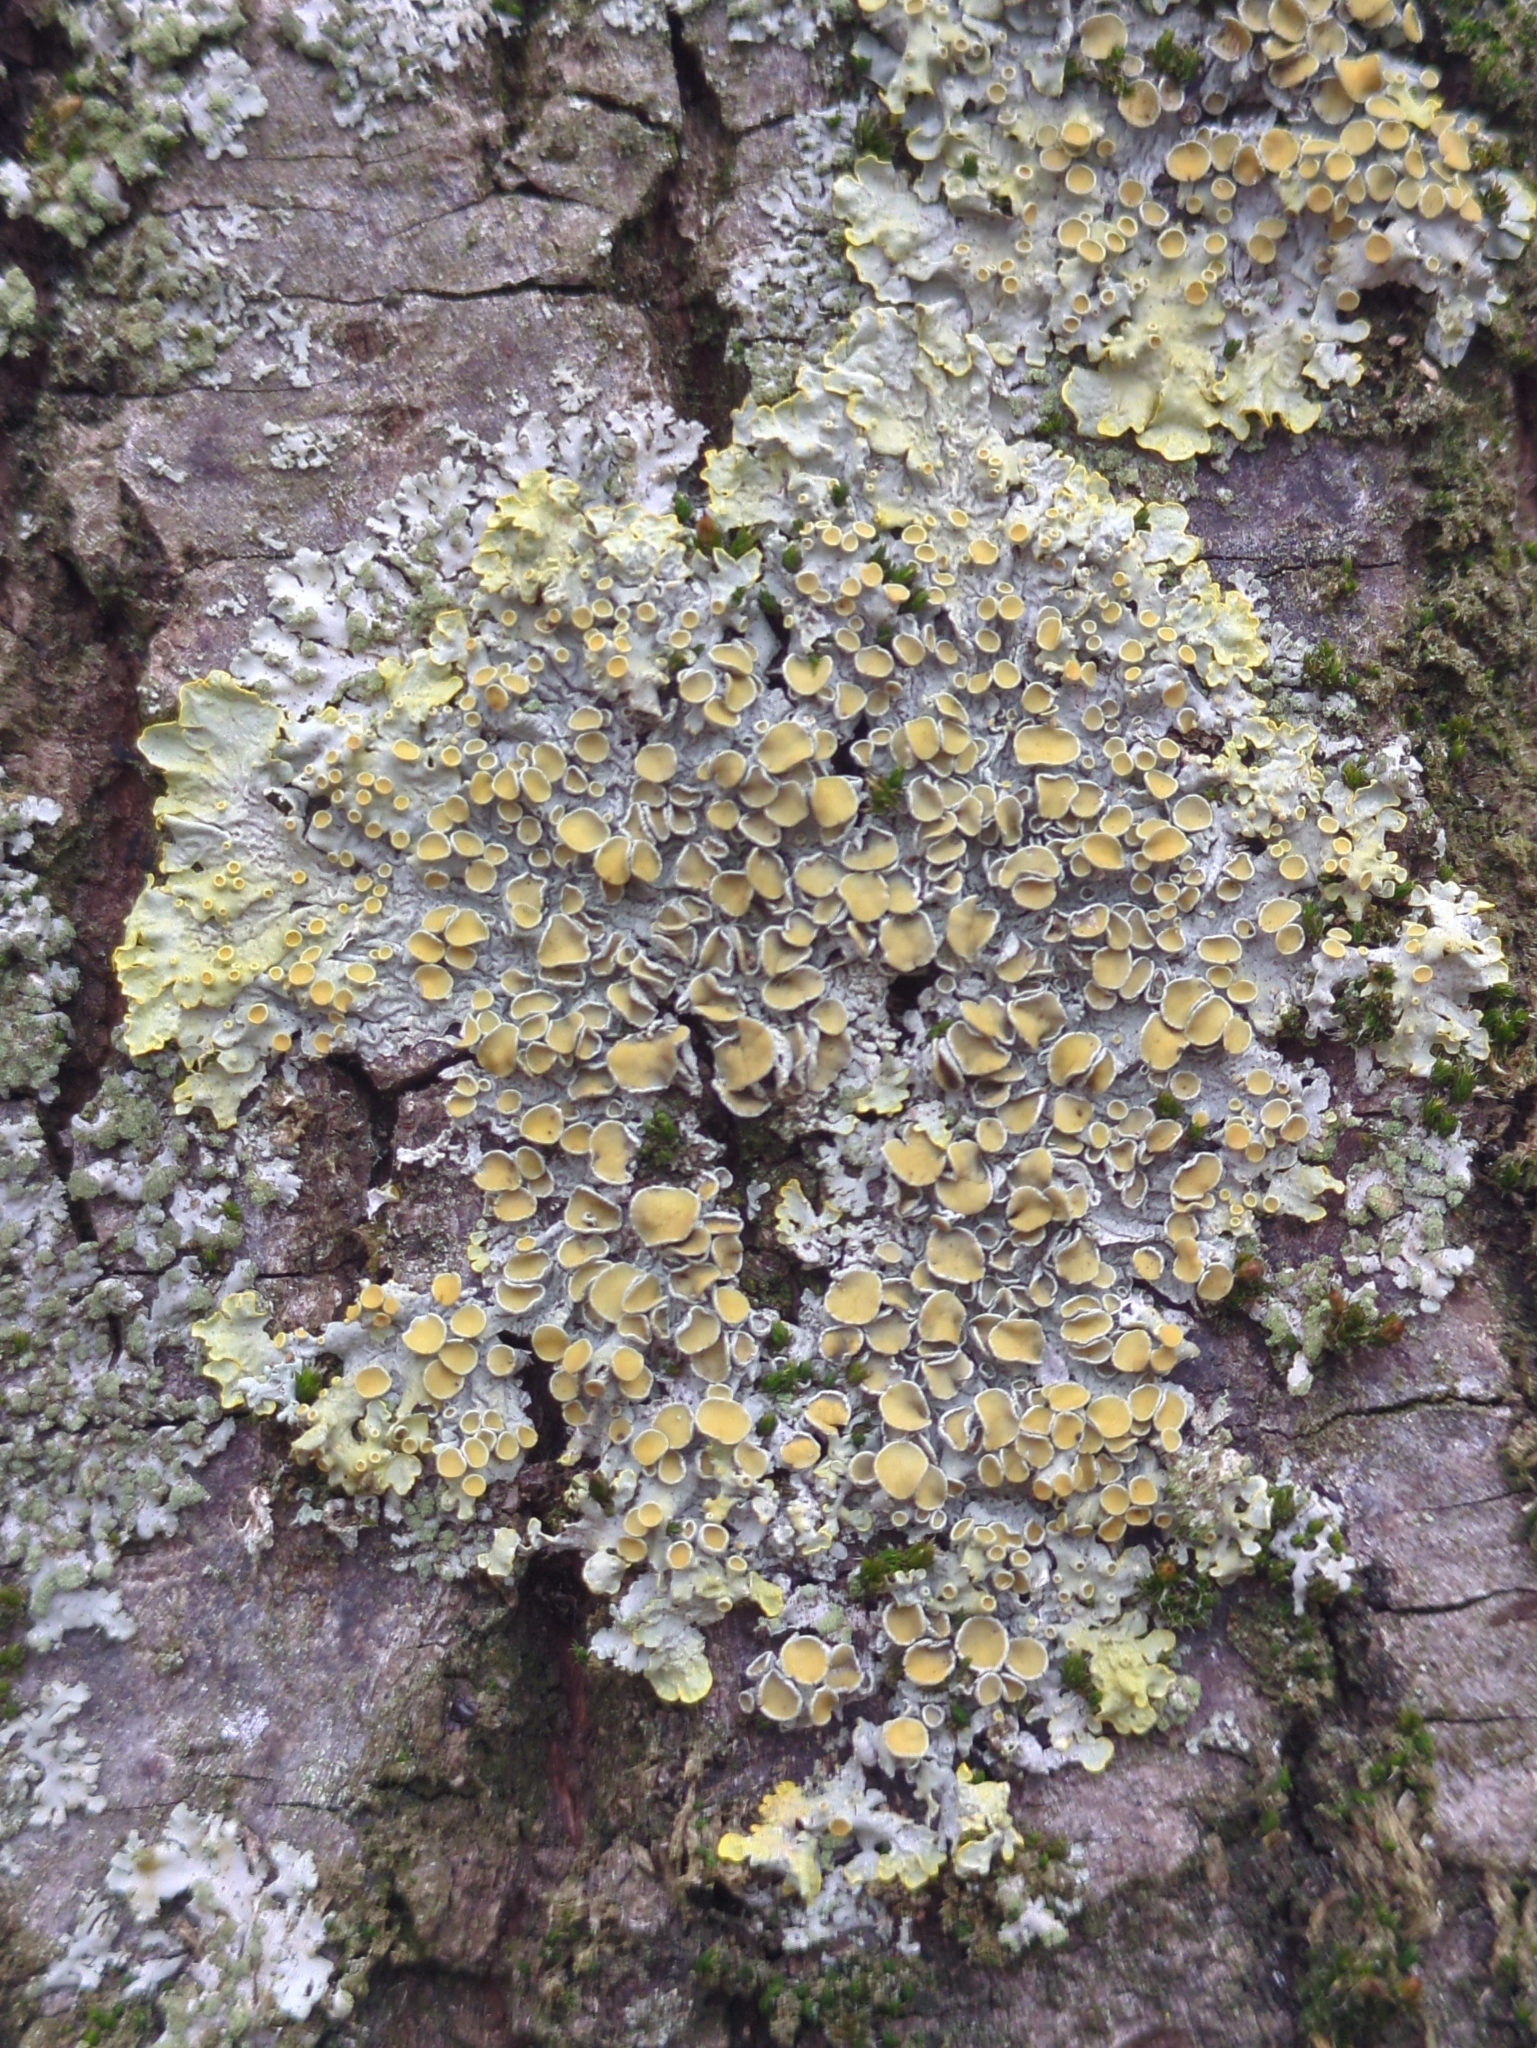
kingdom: Fungi
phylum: Ascomycota
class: Lecanoromycetes
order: Teloschistales
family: Teloschistaceae
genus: Xanthoria
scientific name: Xanthoria parietina
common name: Common orange lichen
